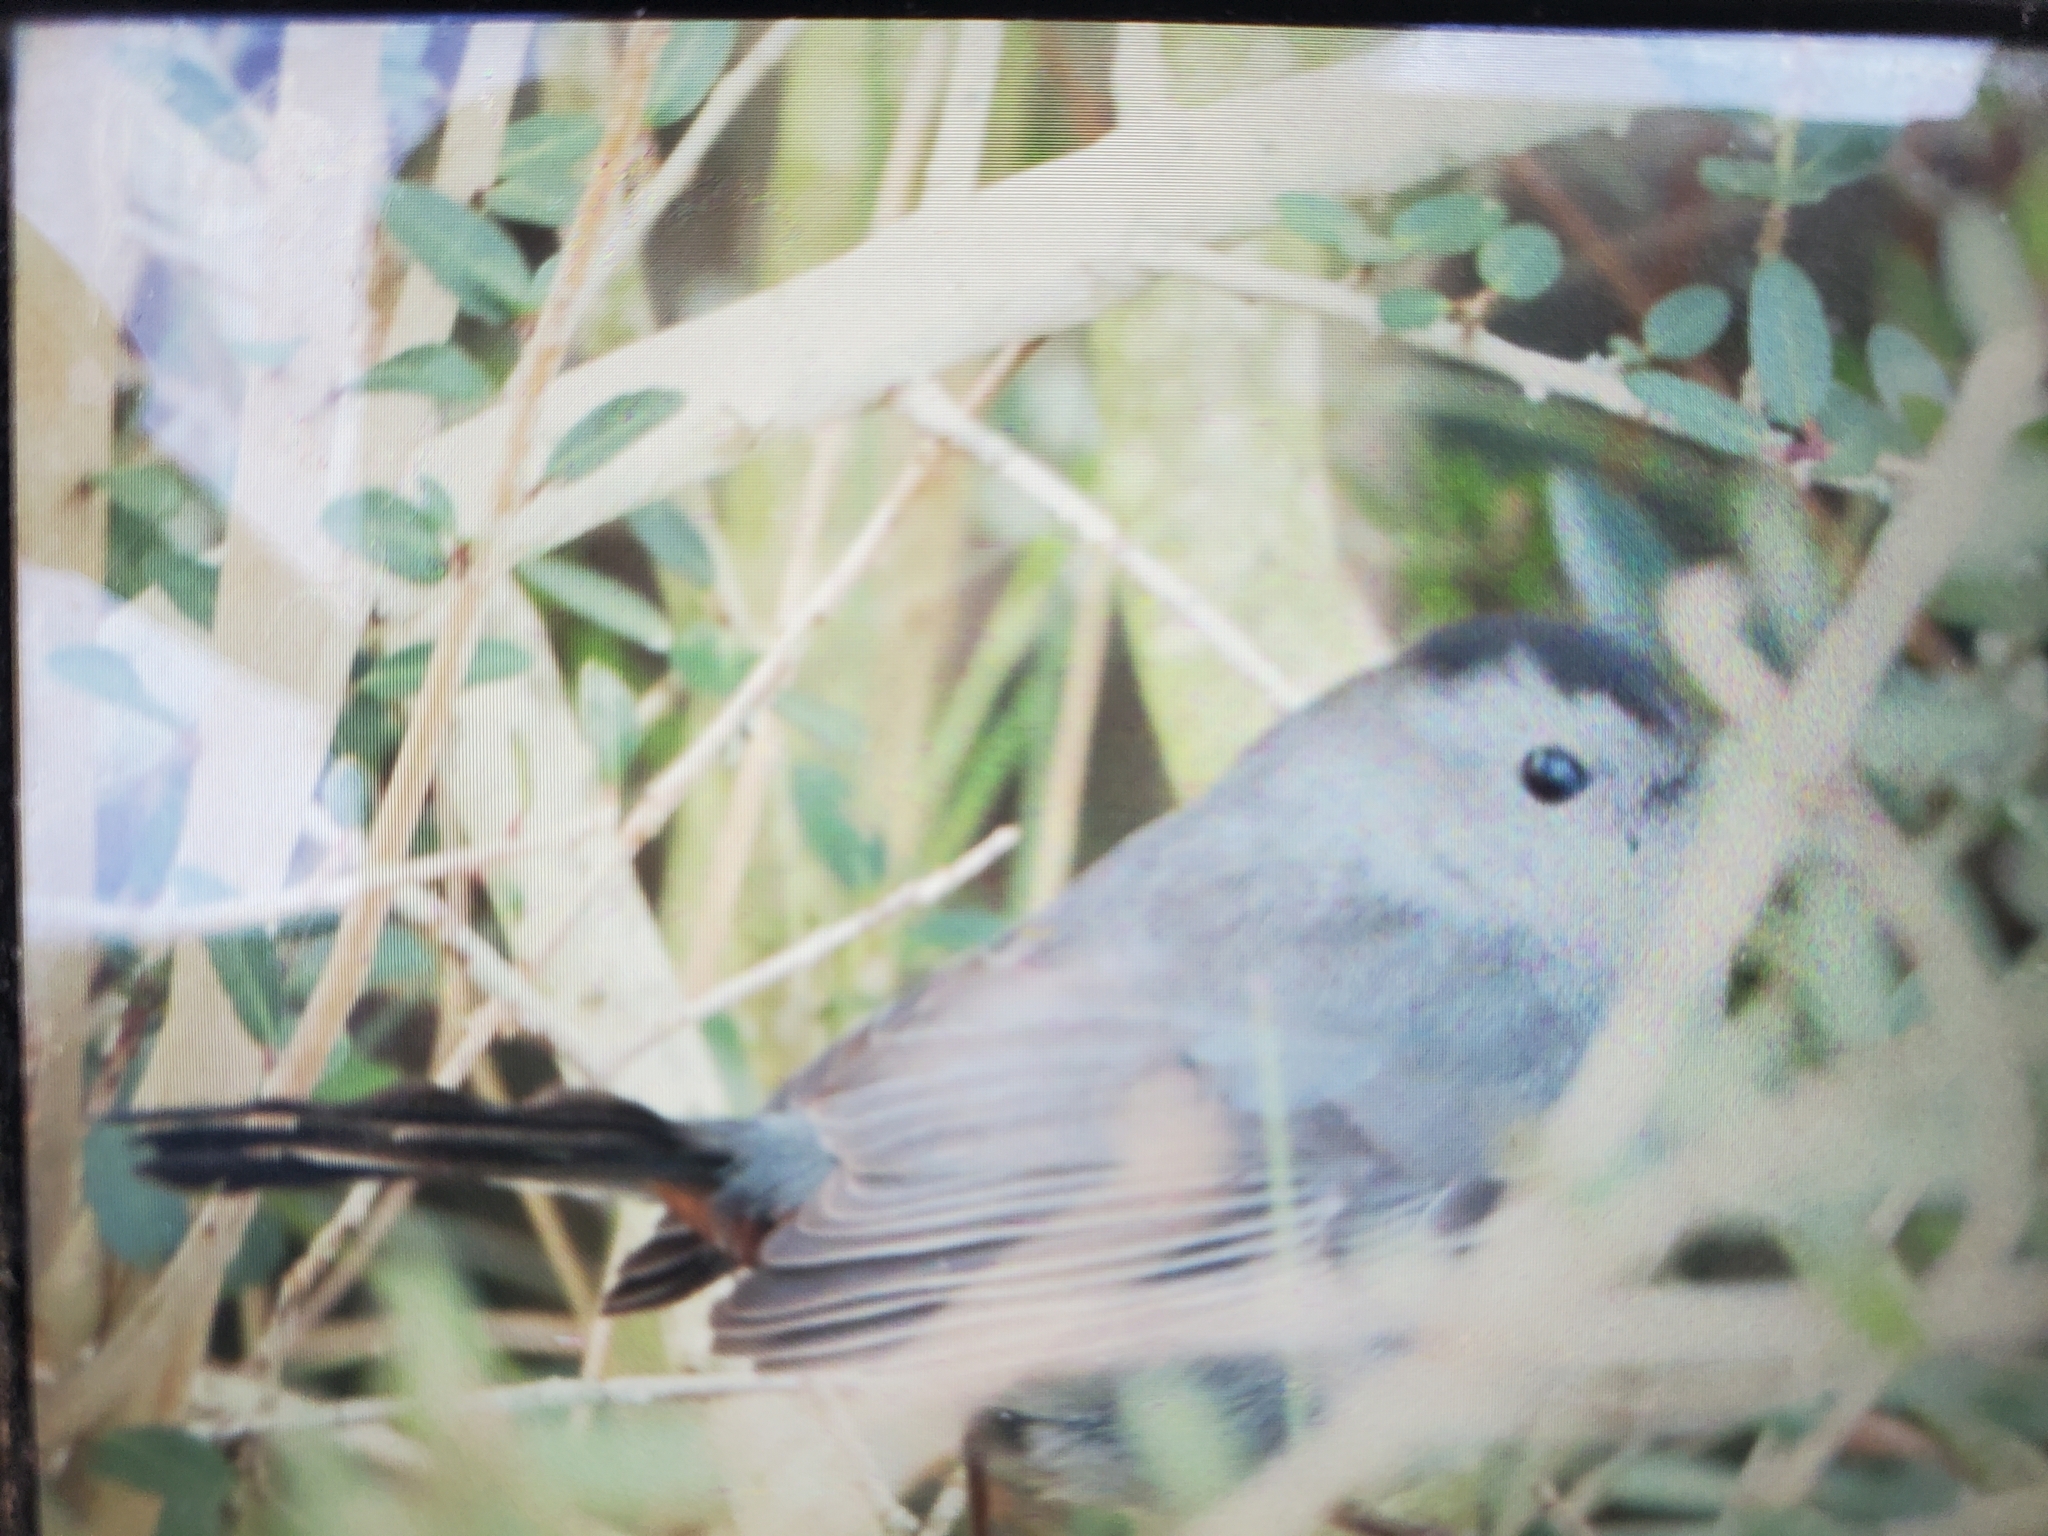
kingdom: Animalia
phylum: Chordata
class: Aves
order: Passeriformes
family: Mimidae
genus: Dumetella
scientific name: Dumetella carolinensis
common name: Gray catbird
